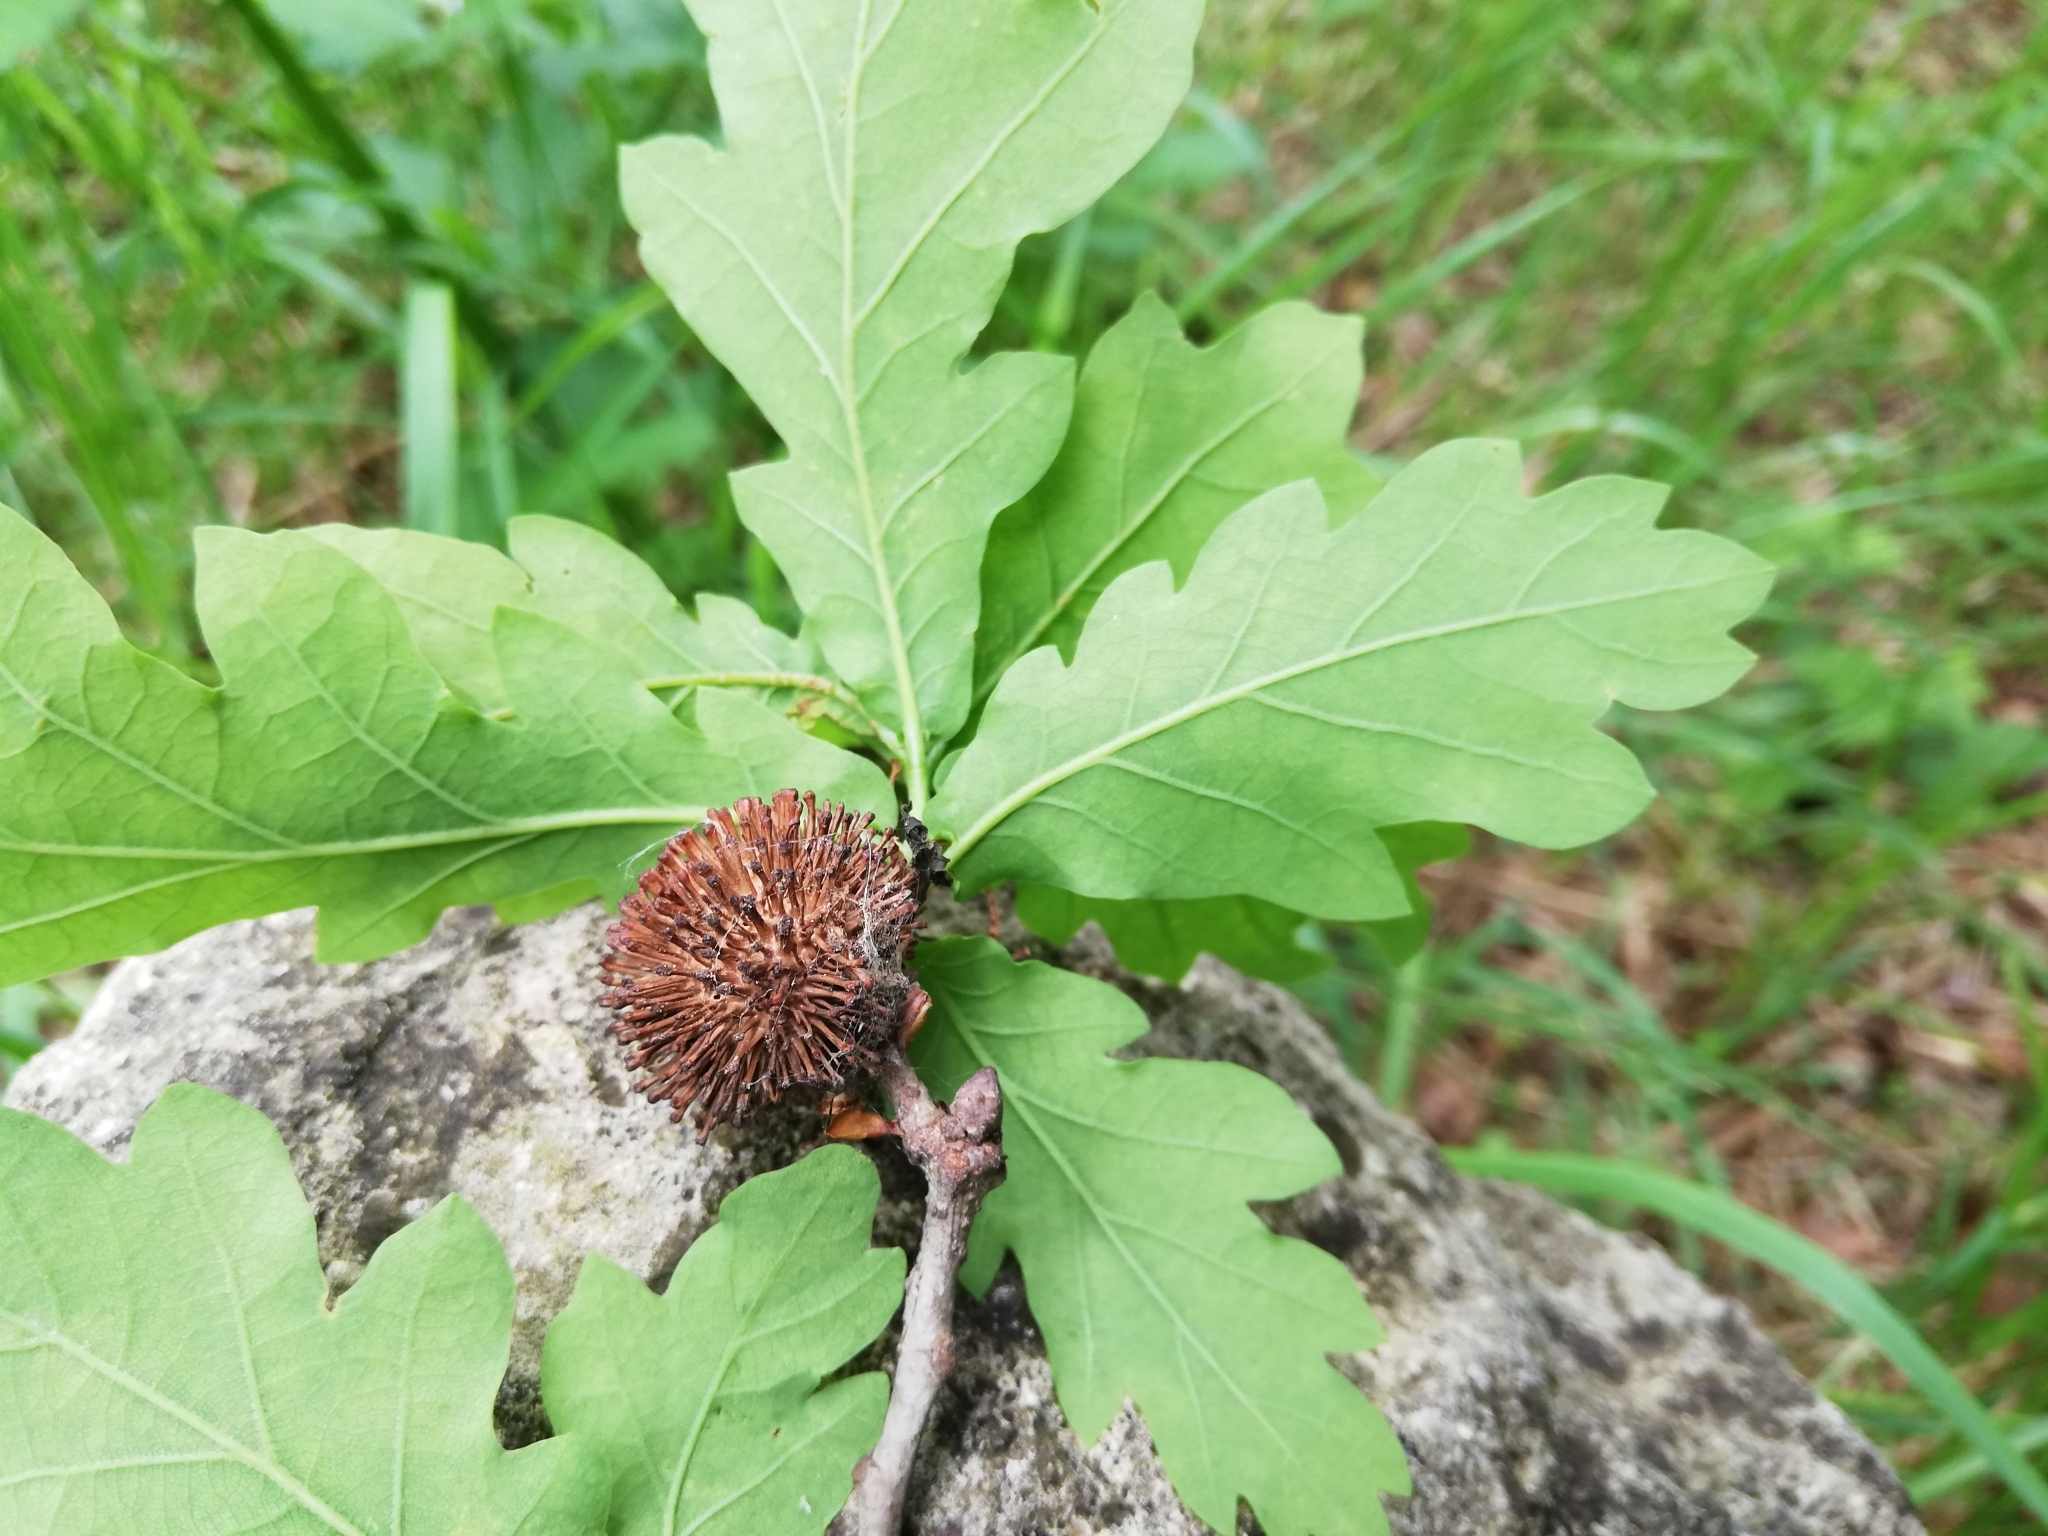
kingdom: Animalia
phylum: Arthropoda
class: Insecta
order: Hymenoptera
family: Cynipidae
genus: Andricus
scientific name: Andricus lucidus
